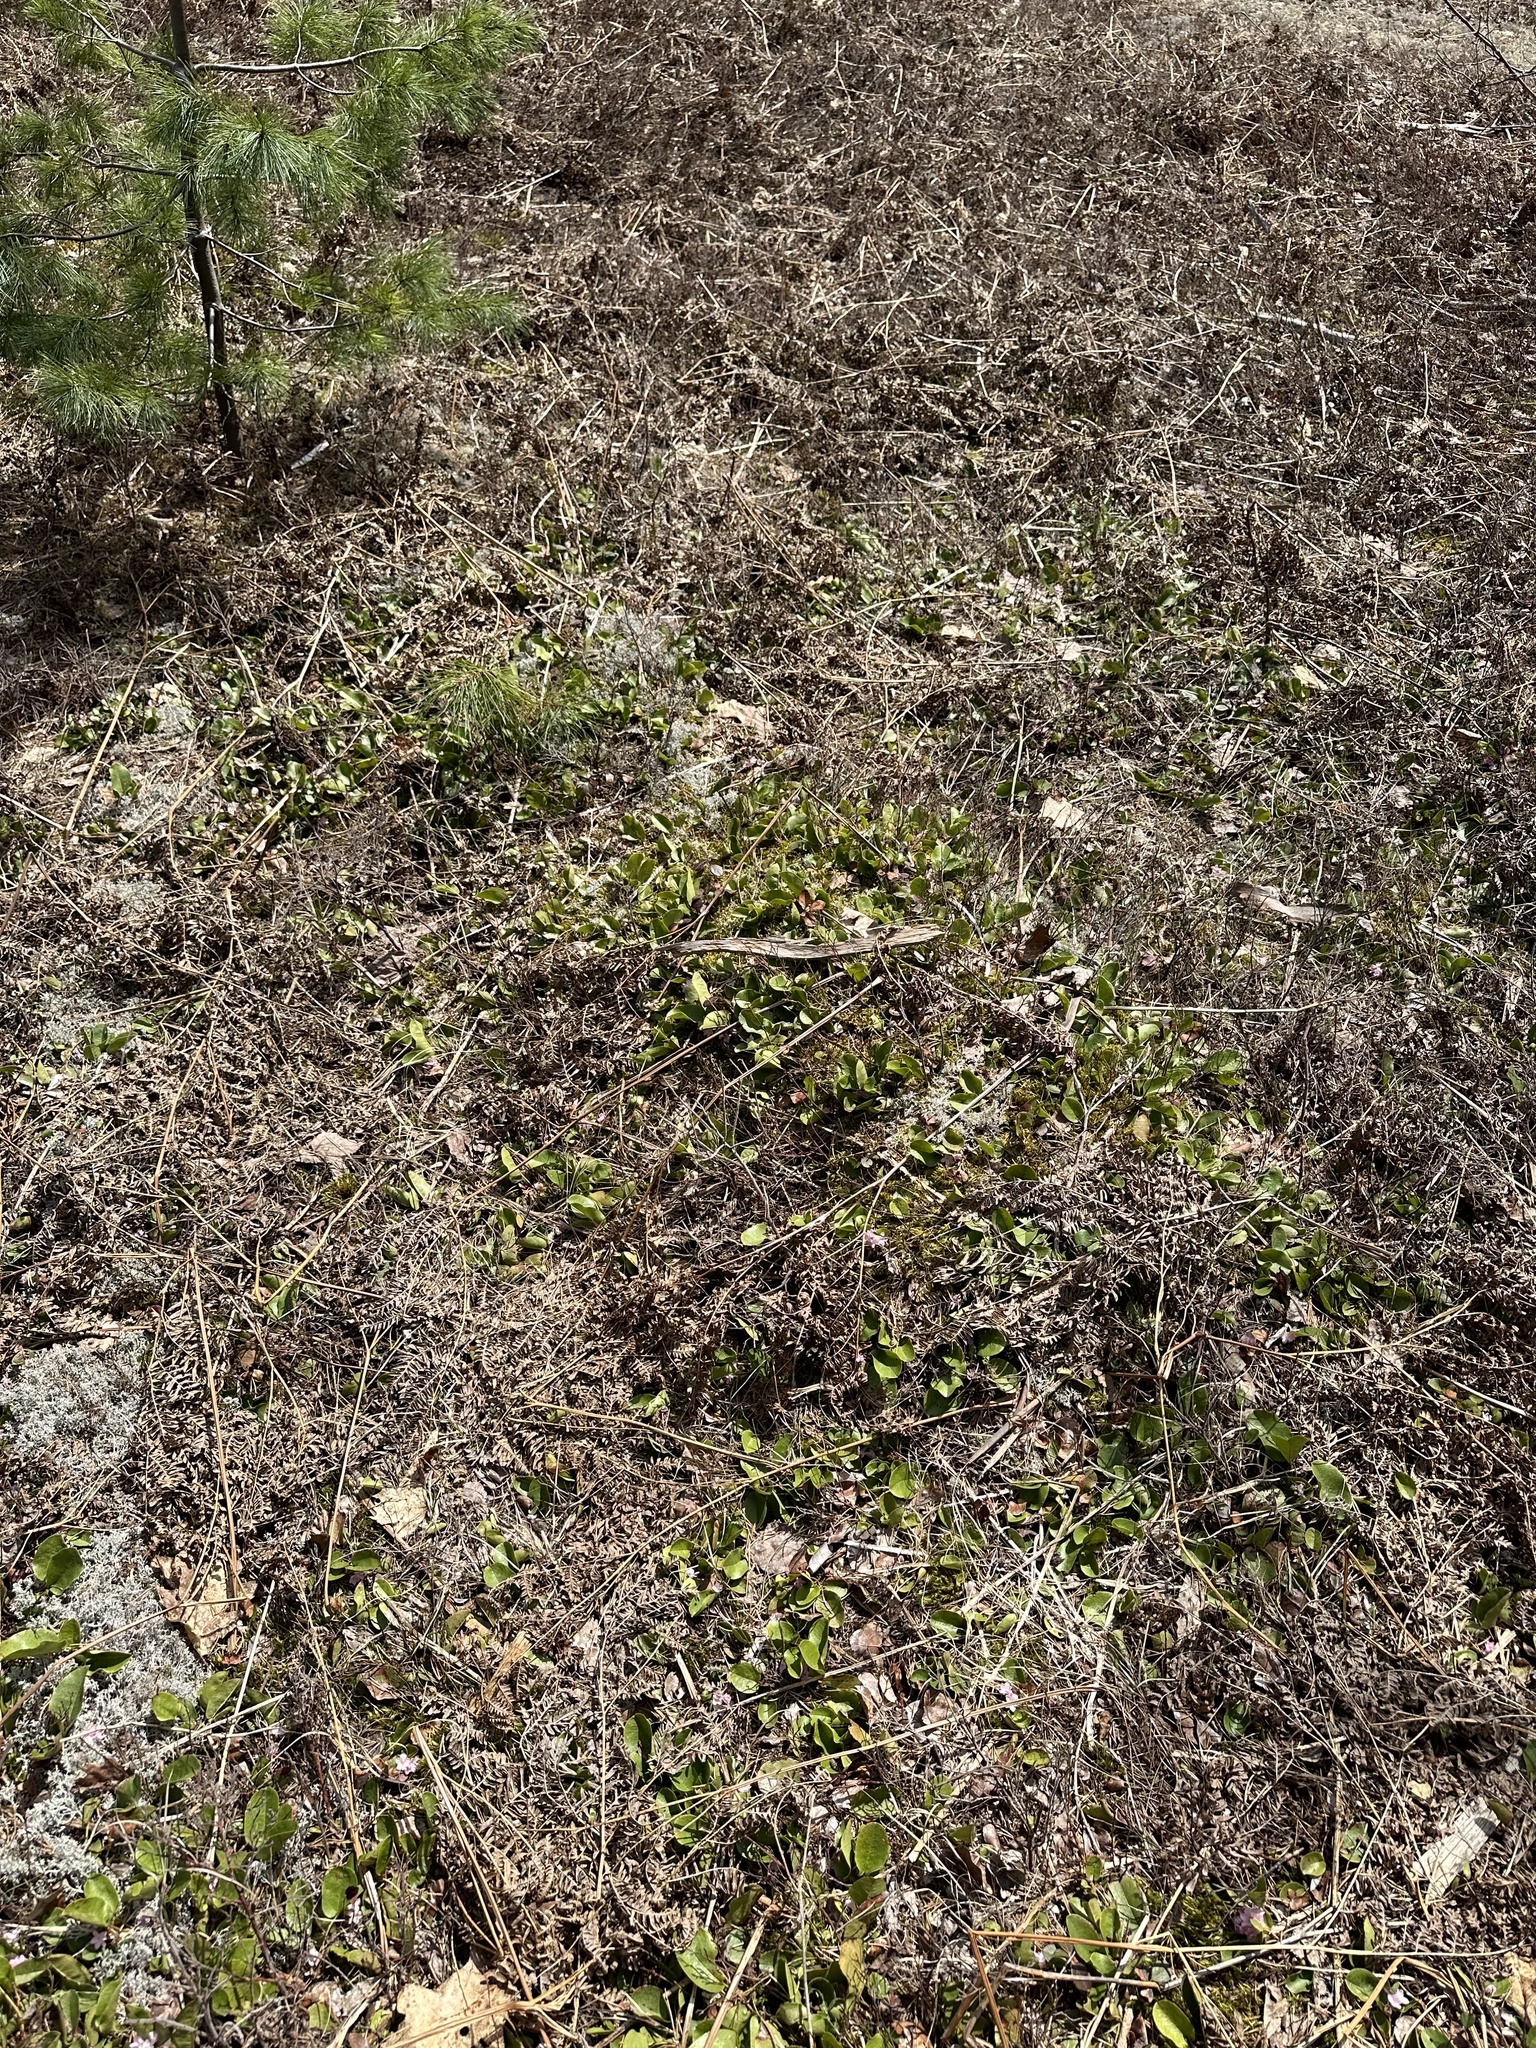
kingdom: Plantae
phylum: Tracheophyta
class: Magnoliopsida
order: Ericales
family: Ericaceae
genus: Epigaea
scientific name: Epigaea repens
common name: Gravelroot
